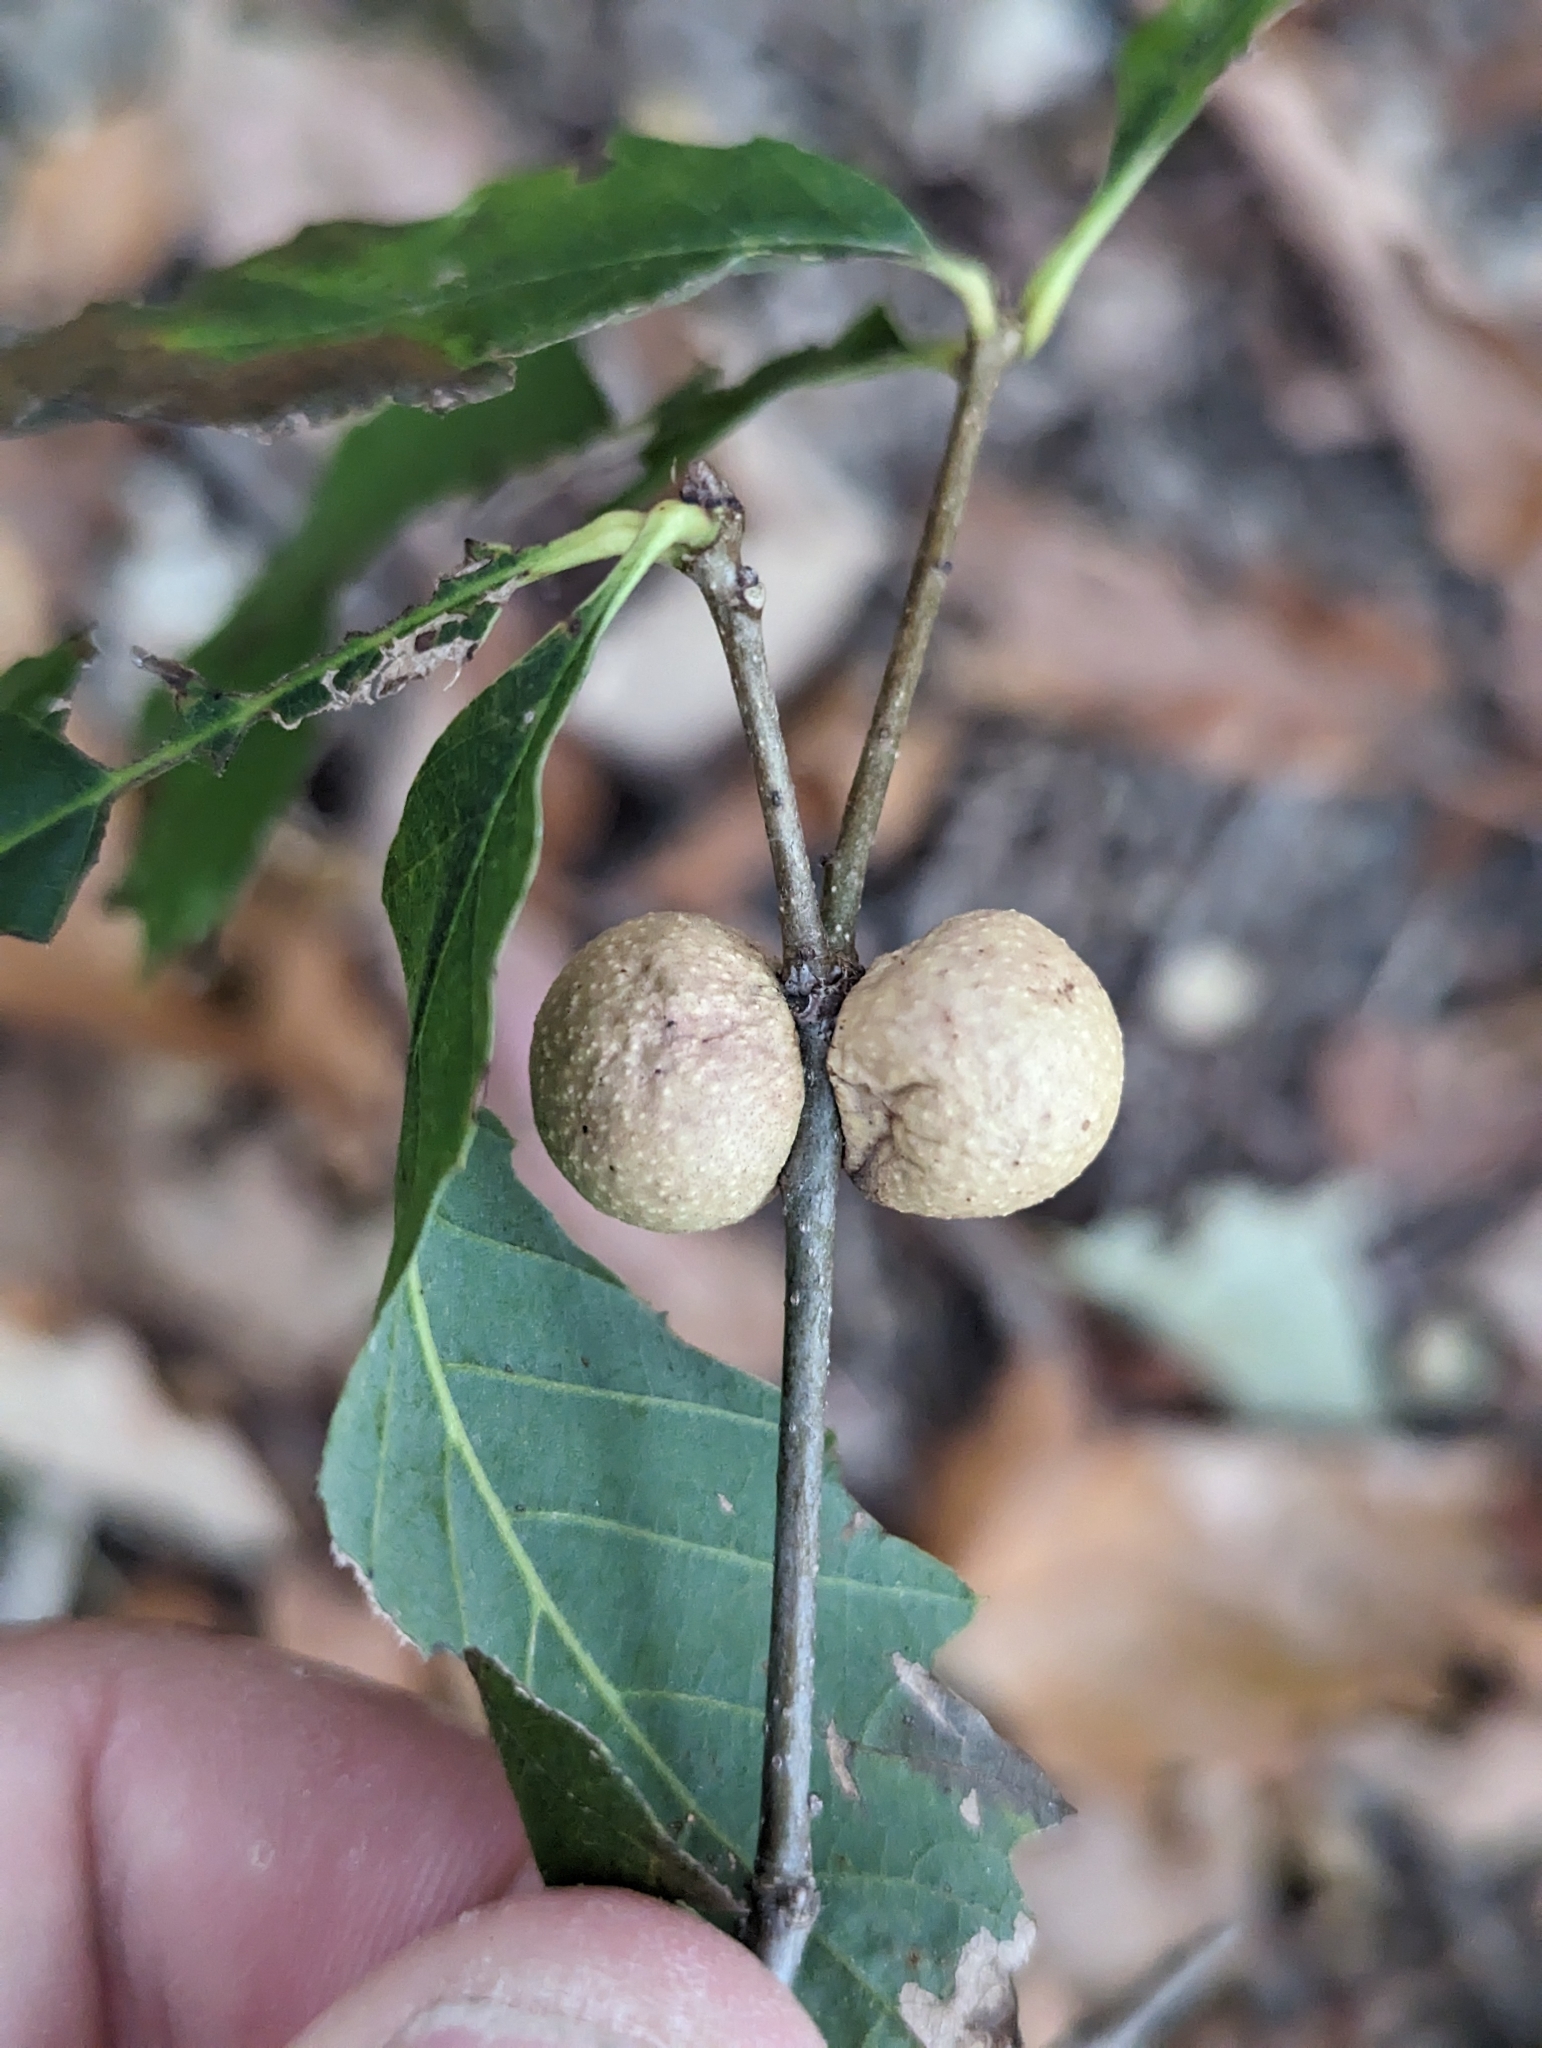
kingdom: Animalia
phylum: Arthropoda
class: Insecta
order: Hymenoptera
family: Cynipidae
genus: Disholcaspis
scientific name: Disholcaspis quercusglobulus
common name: Round bullet gall wasp
